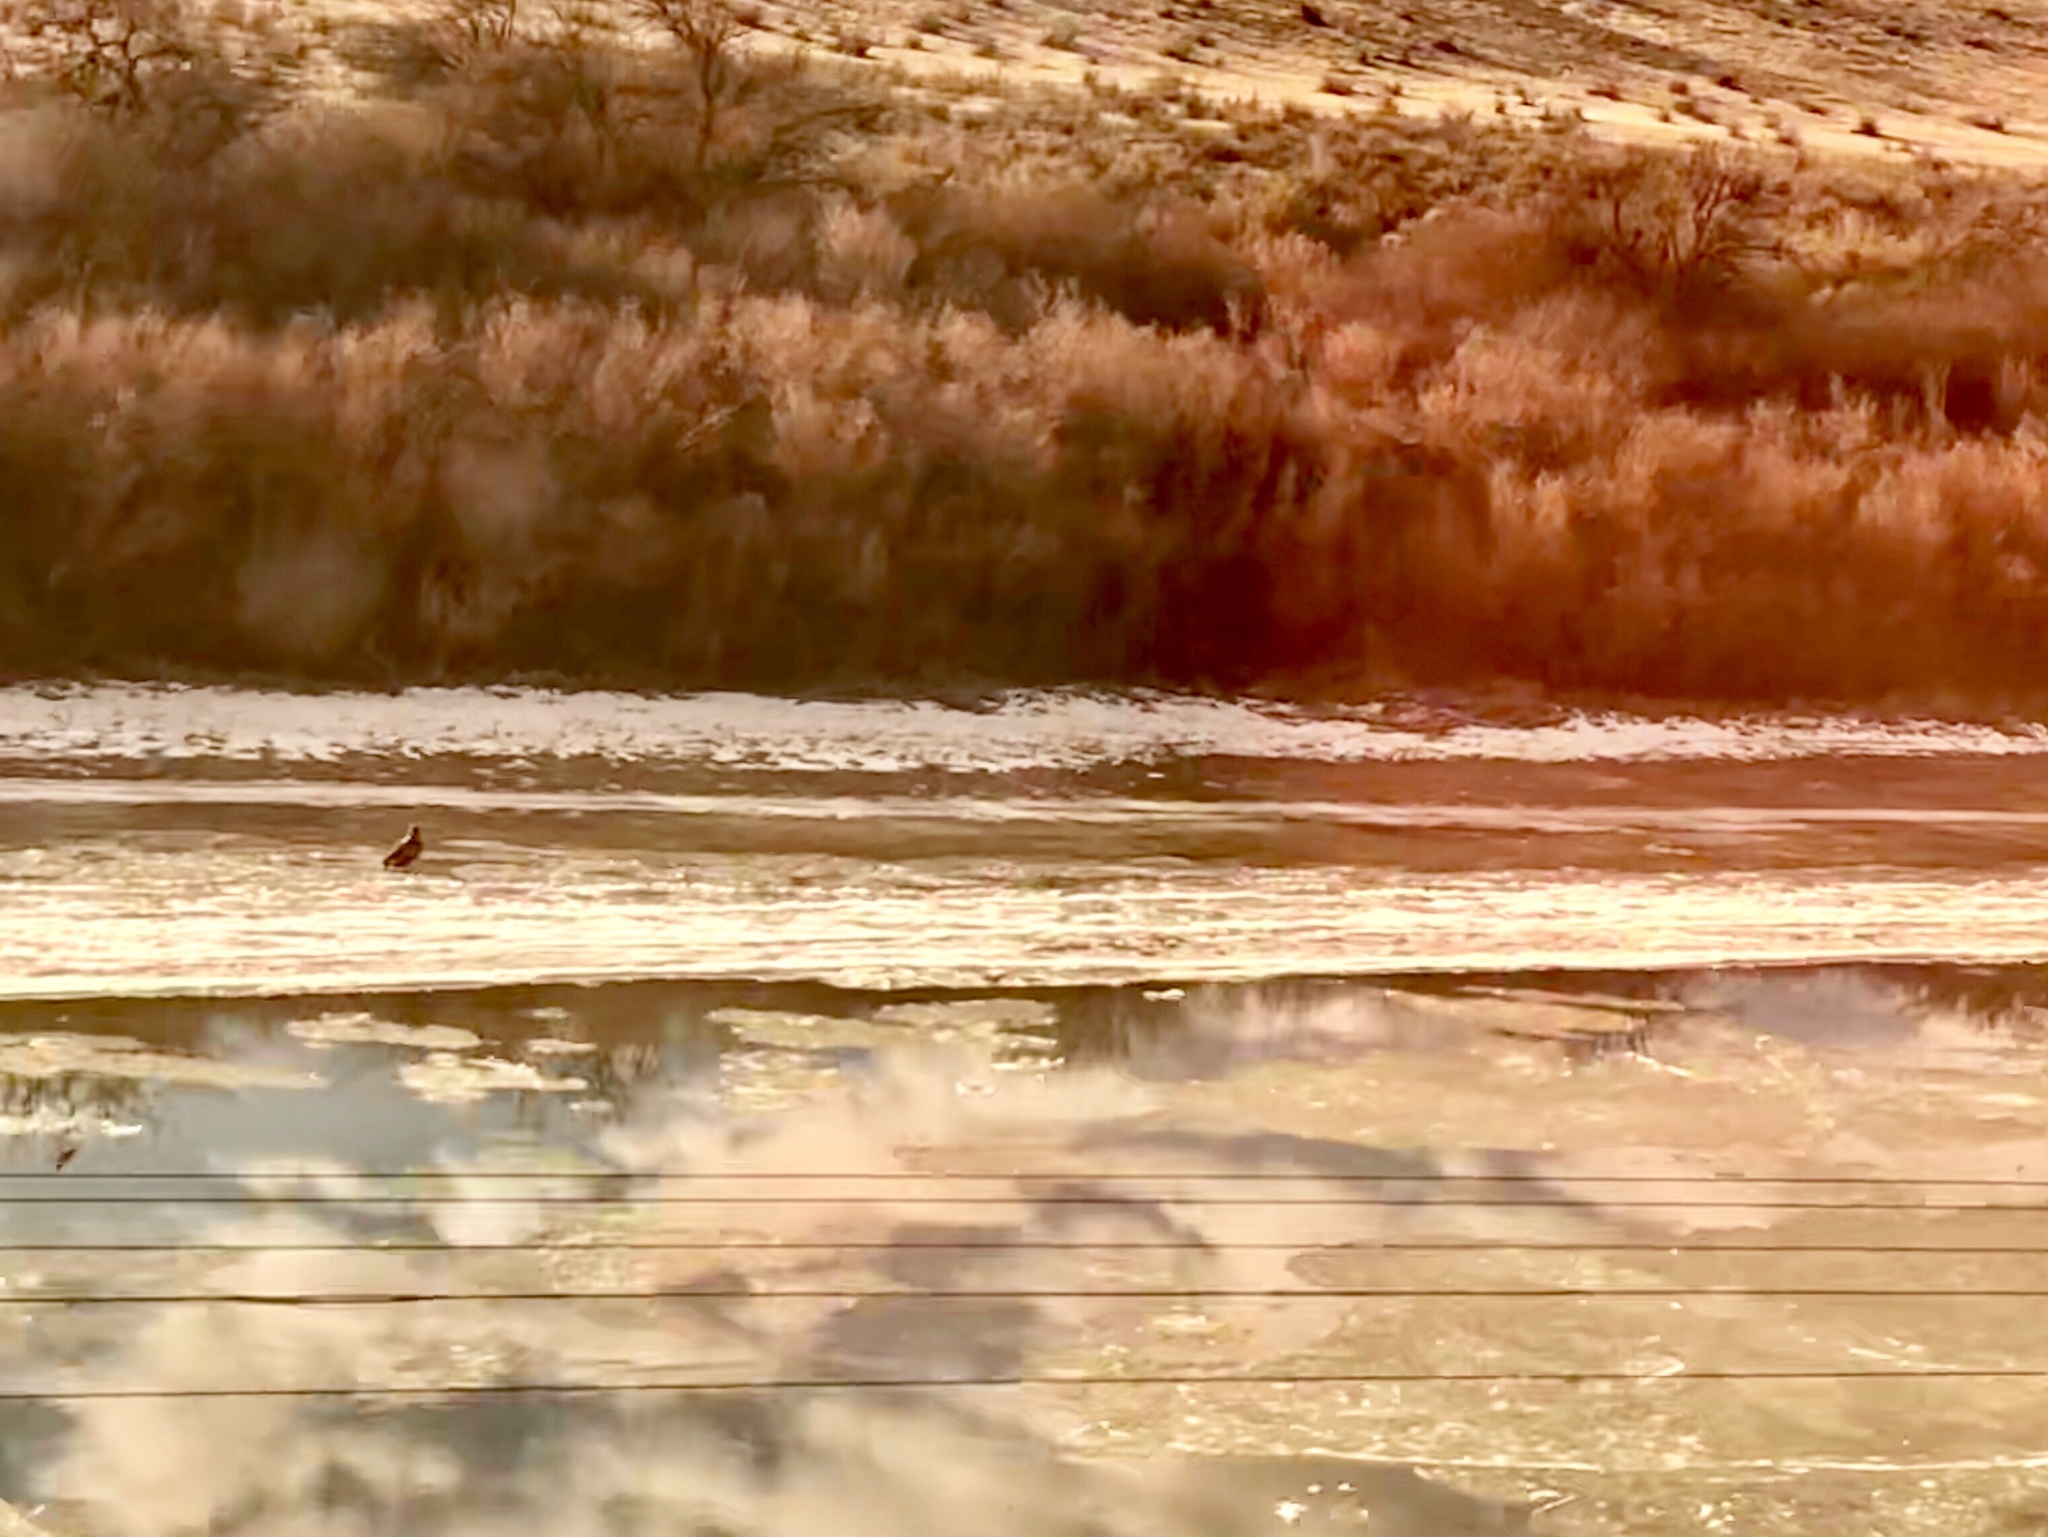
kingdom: Animalia
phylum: Chordata
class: Aves
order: Accipitriformes
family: Accipitridae
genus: Haliaeetus
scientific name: Haliaeetus leucocephalus
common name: Bald eagle
